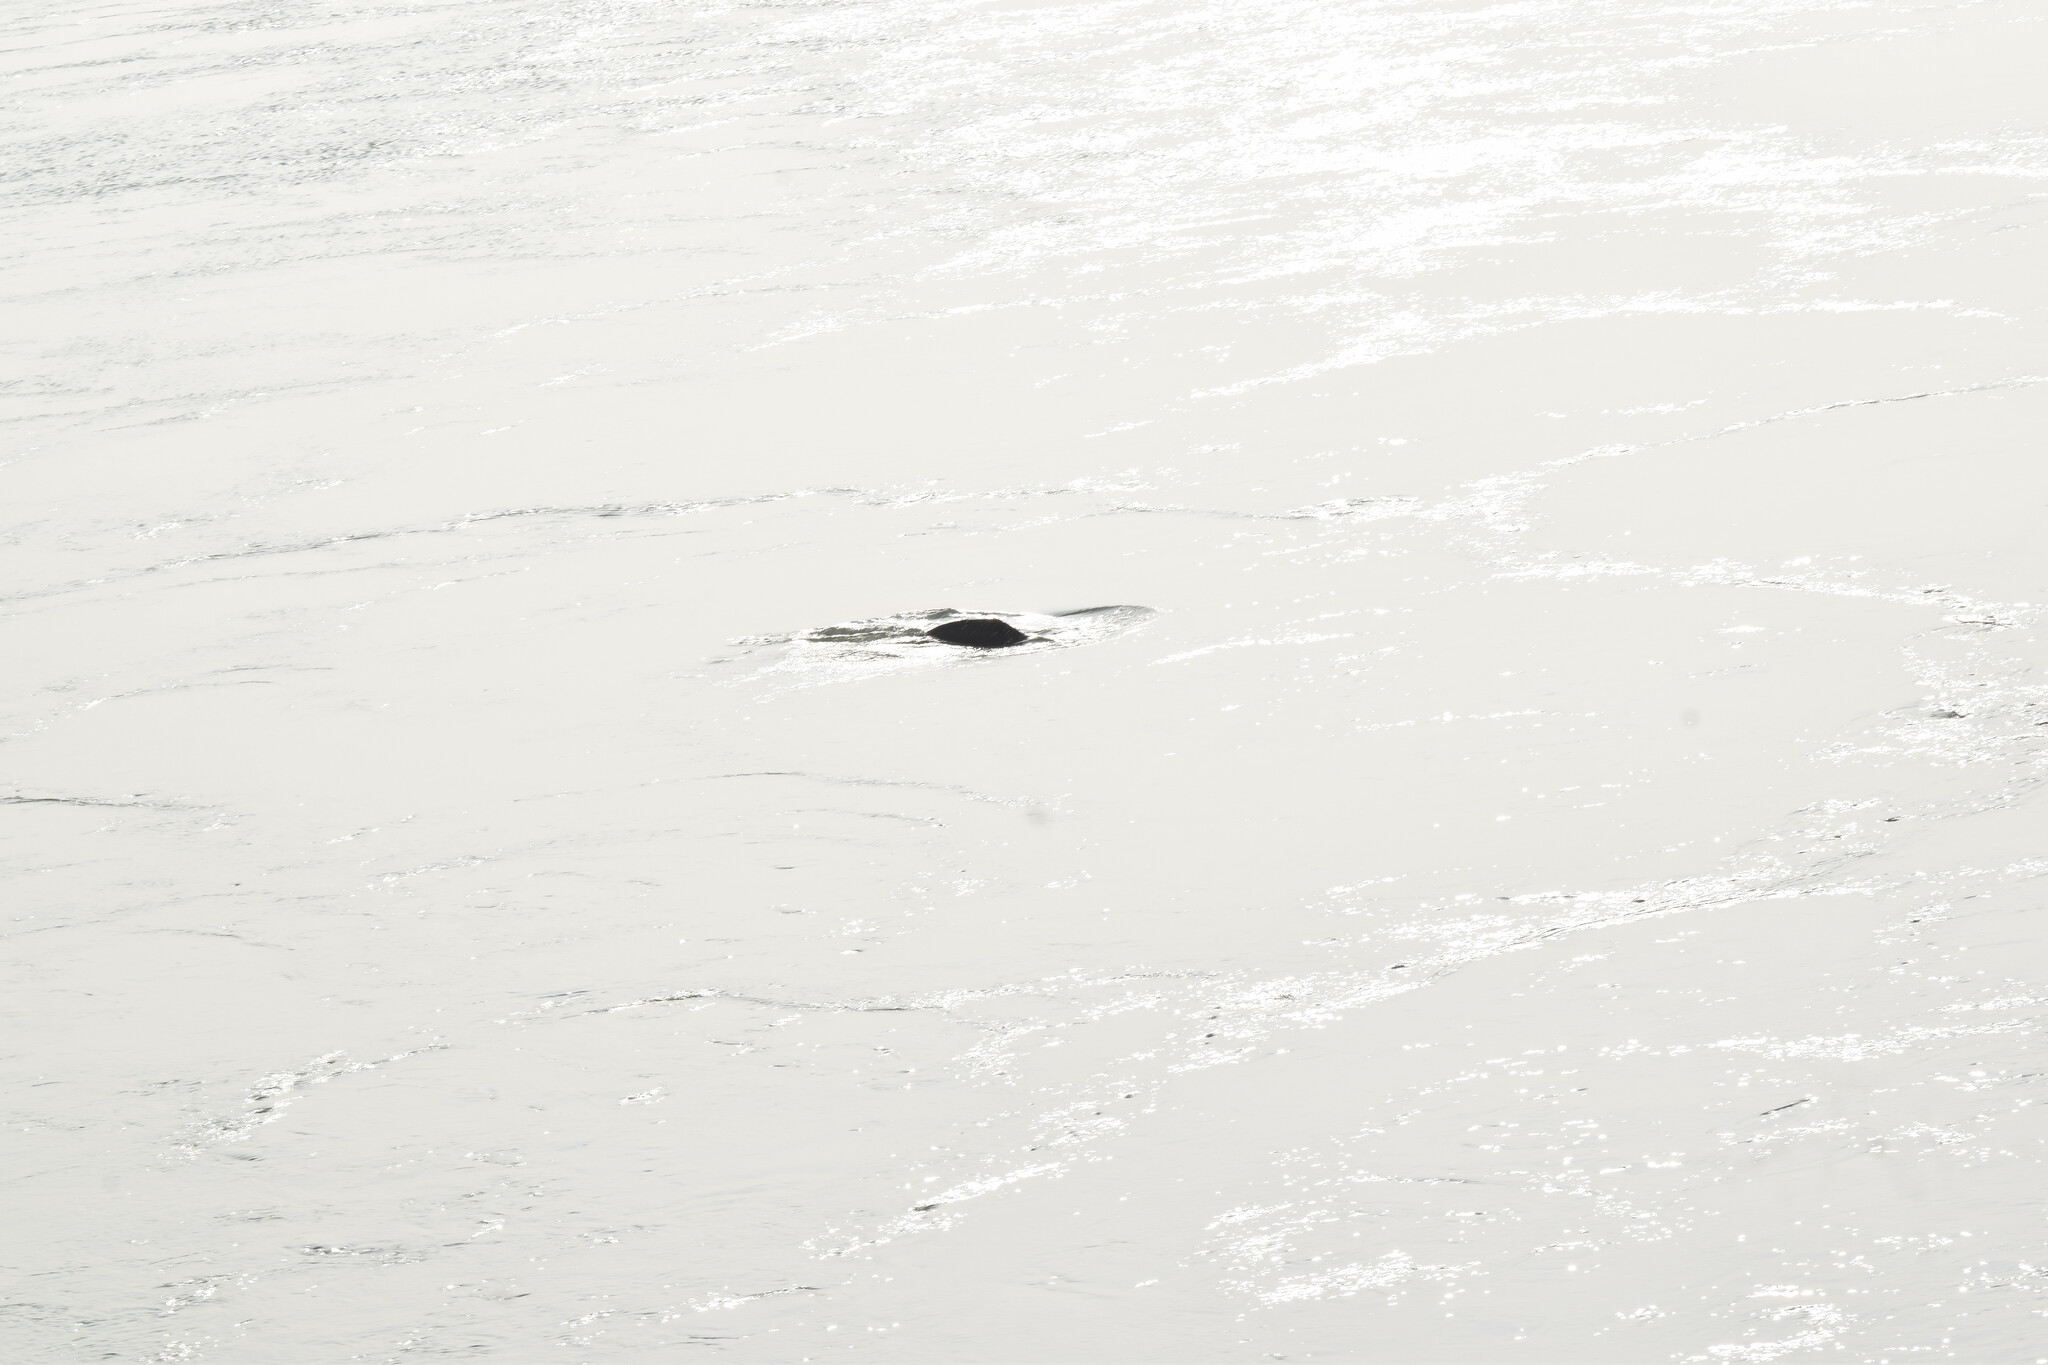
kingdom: Animalia
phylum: Chordata
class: Mammalia
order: Cetacea
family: Platanistidae
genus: Platanista
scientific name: Platanista gangetica
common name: Ganges river dolphin
